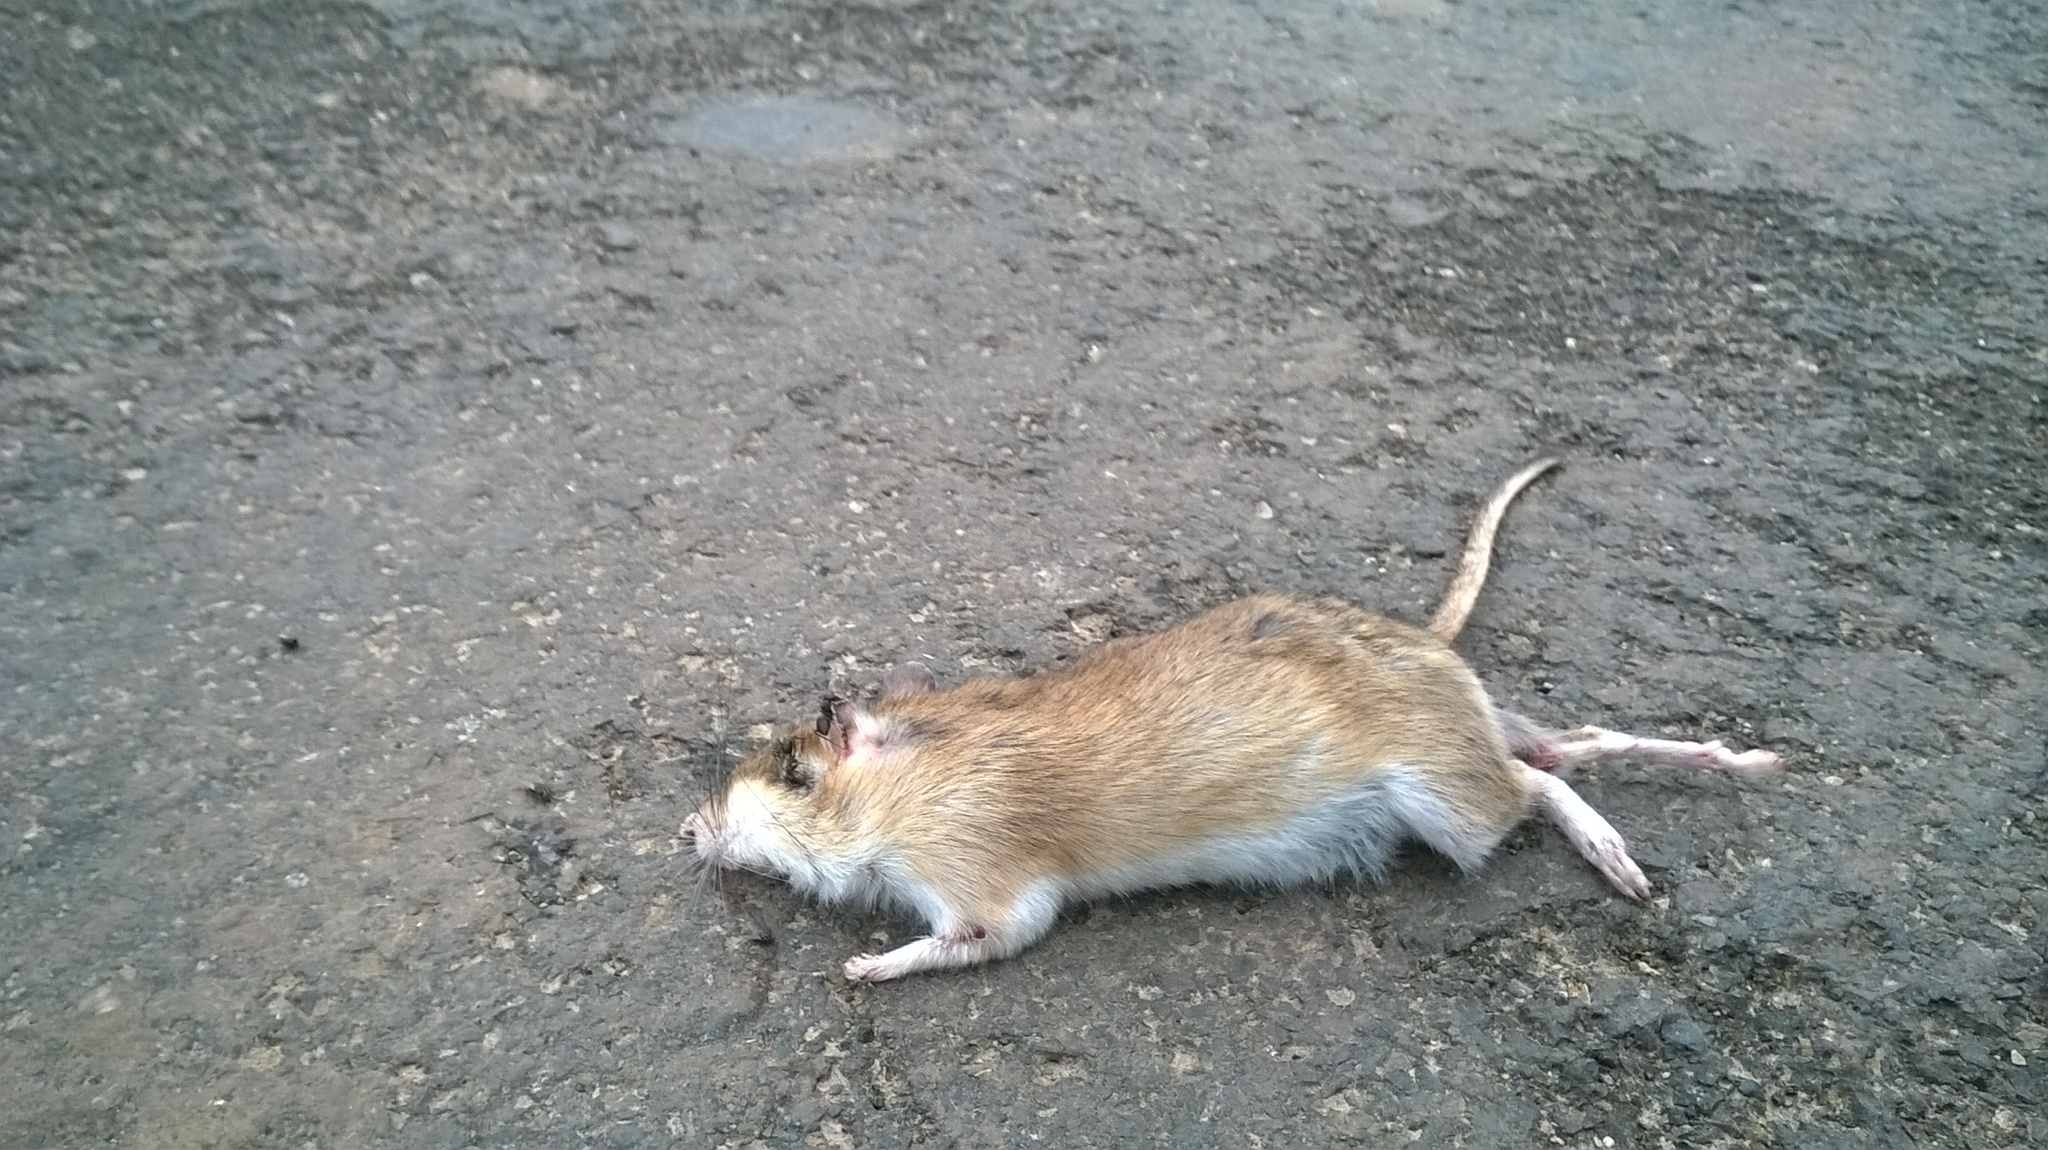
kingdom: Animalia
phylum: Chordata
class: Mammalia
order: Rodentia
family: Muridae
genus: Tatera
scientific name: Tatera indica
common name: Indian gerbil
